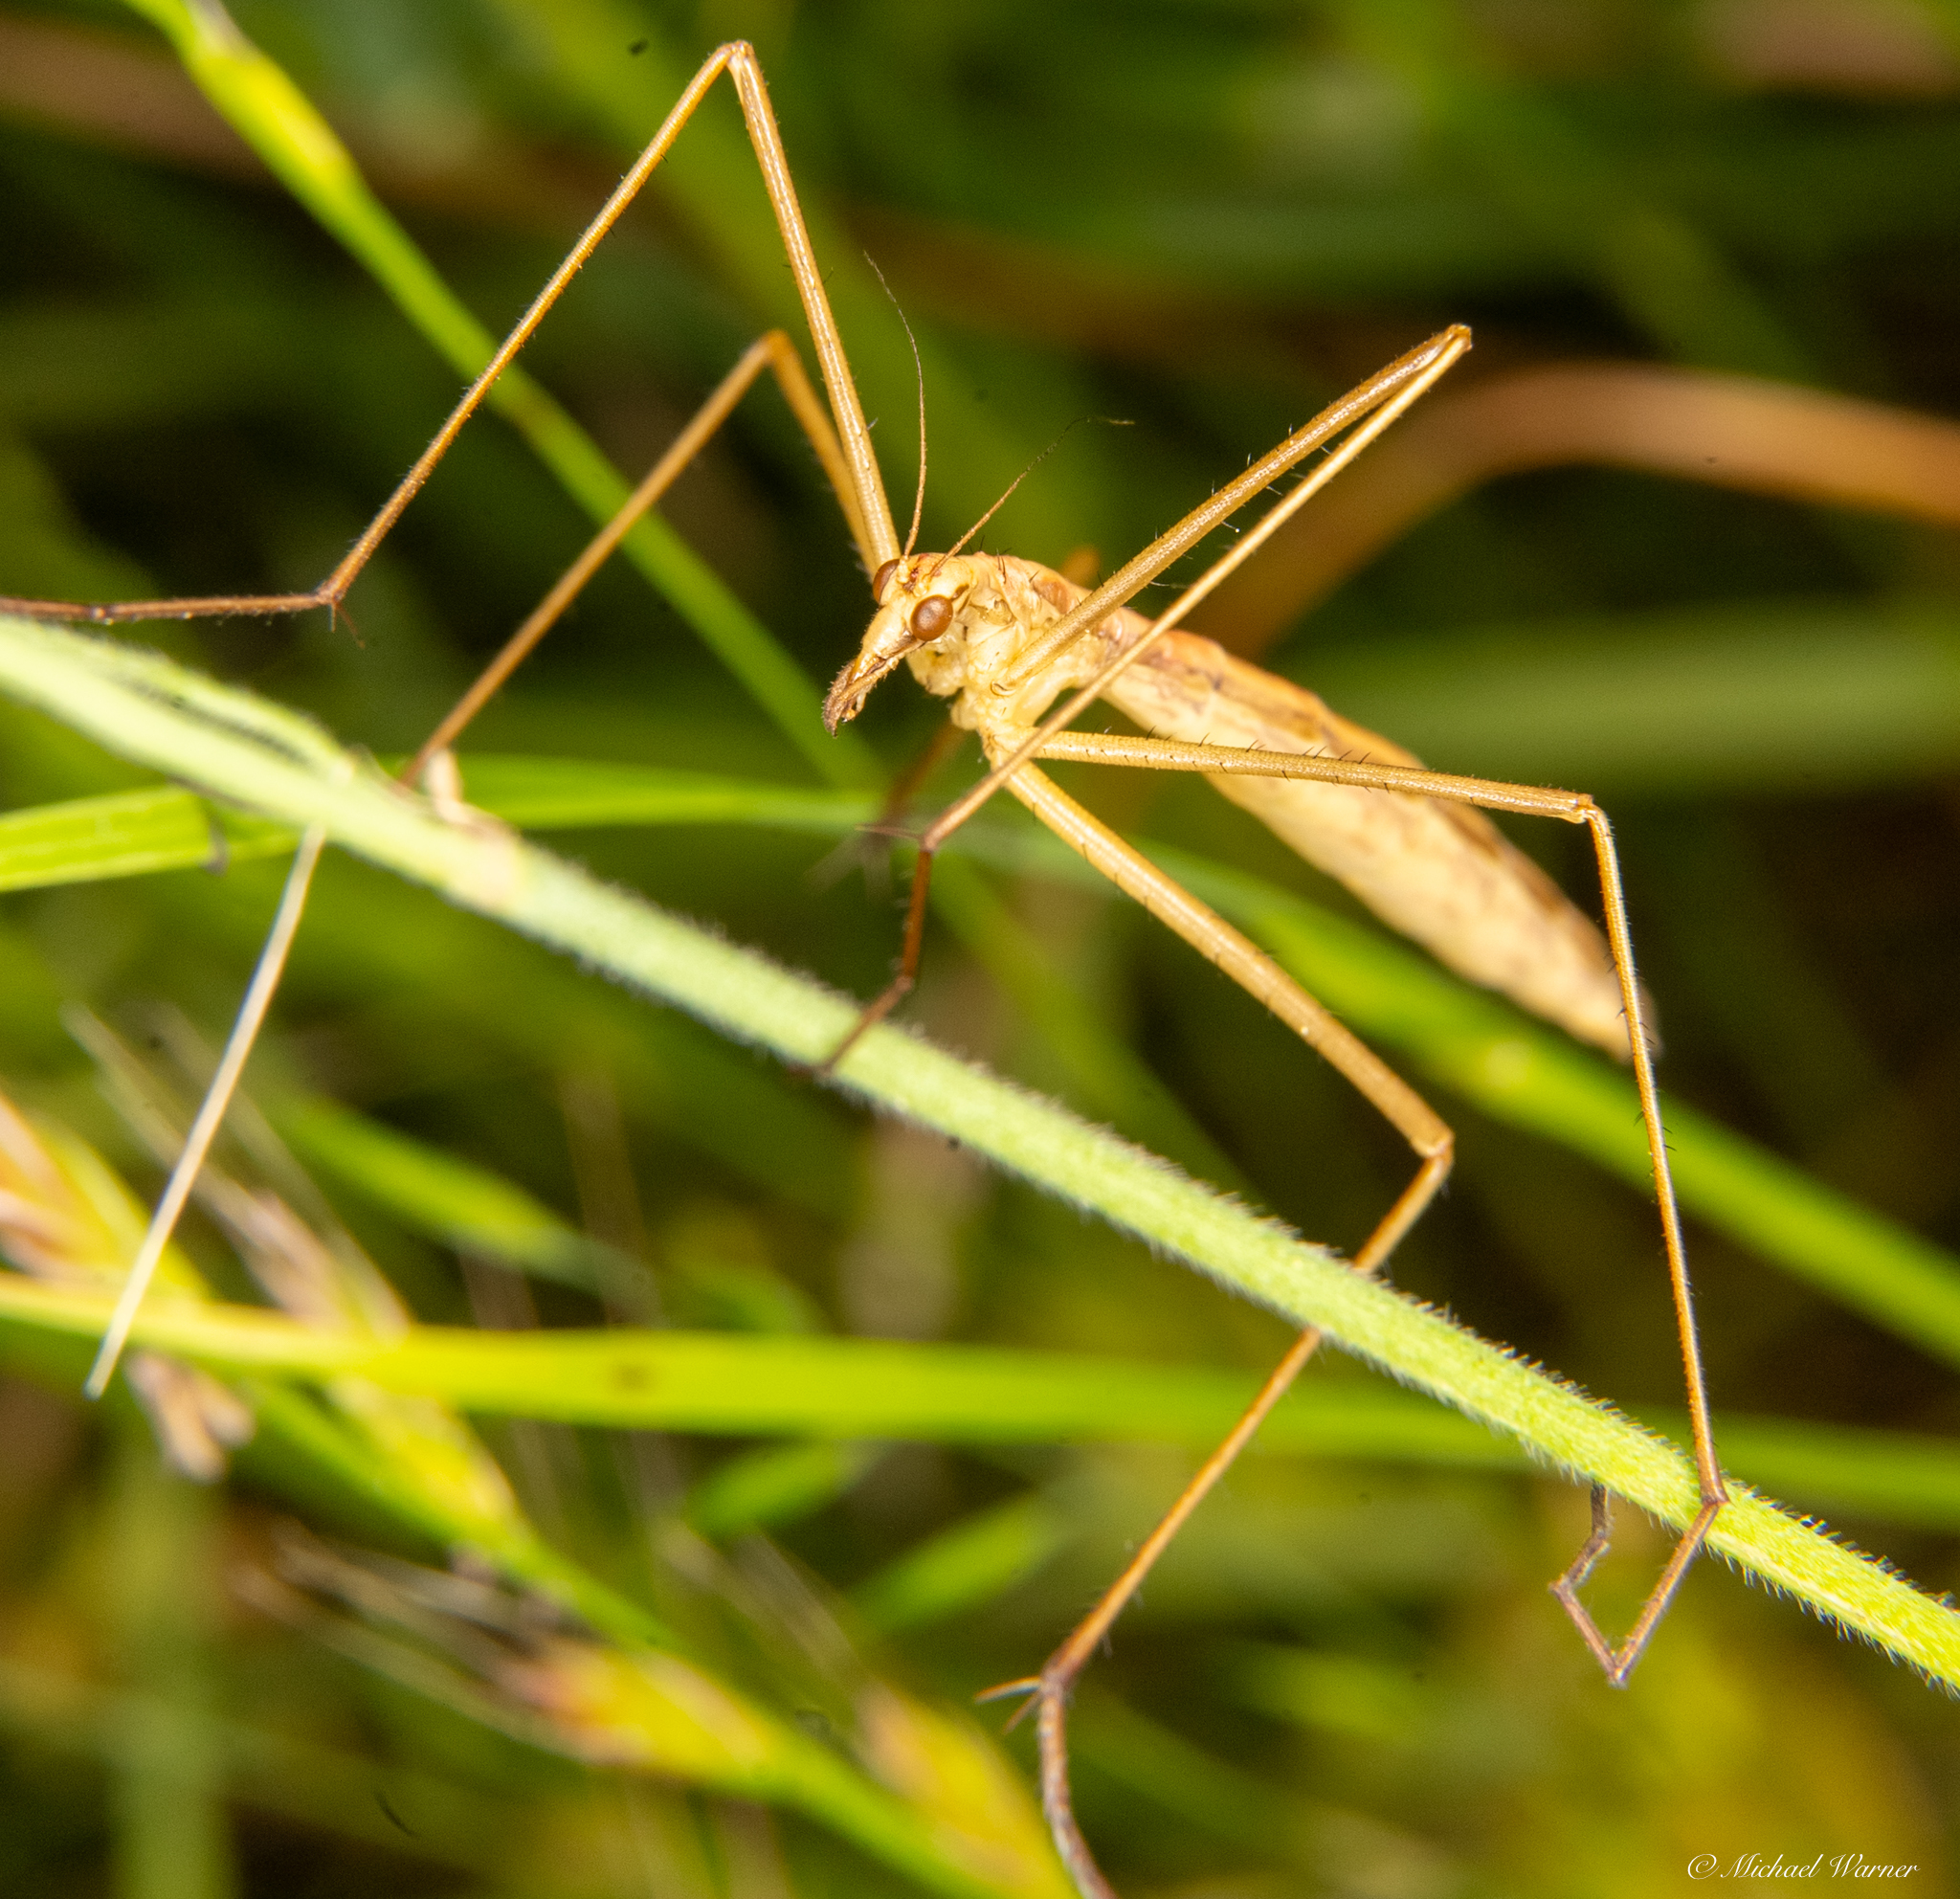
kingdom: Animalia
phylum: Arthropoda
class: Insecta
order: Mecoptera
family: Bittacidae
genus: Apterobittacus
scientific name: Apterobittacus apterus
